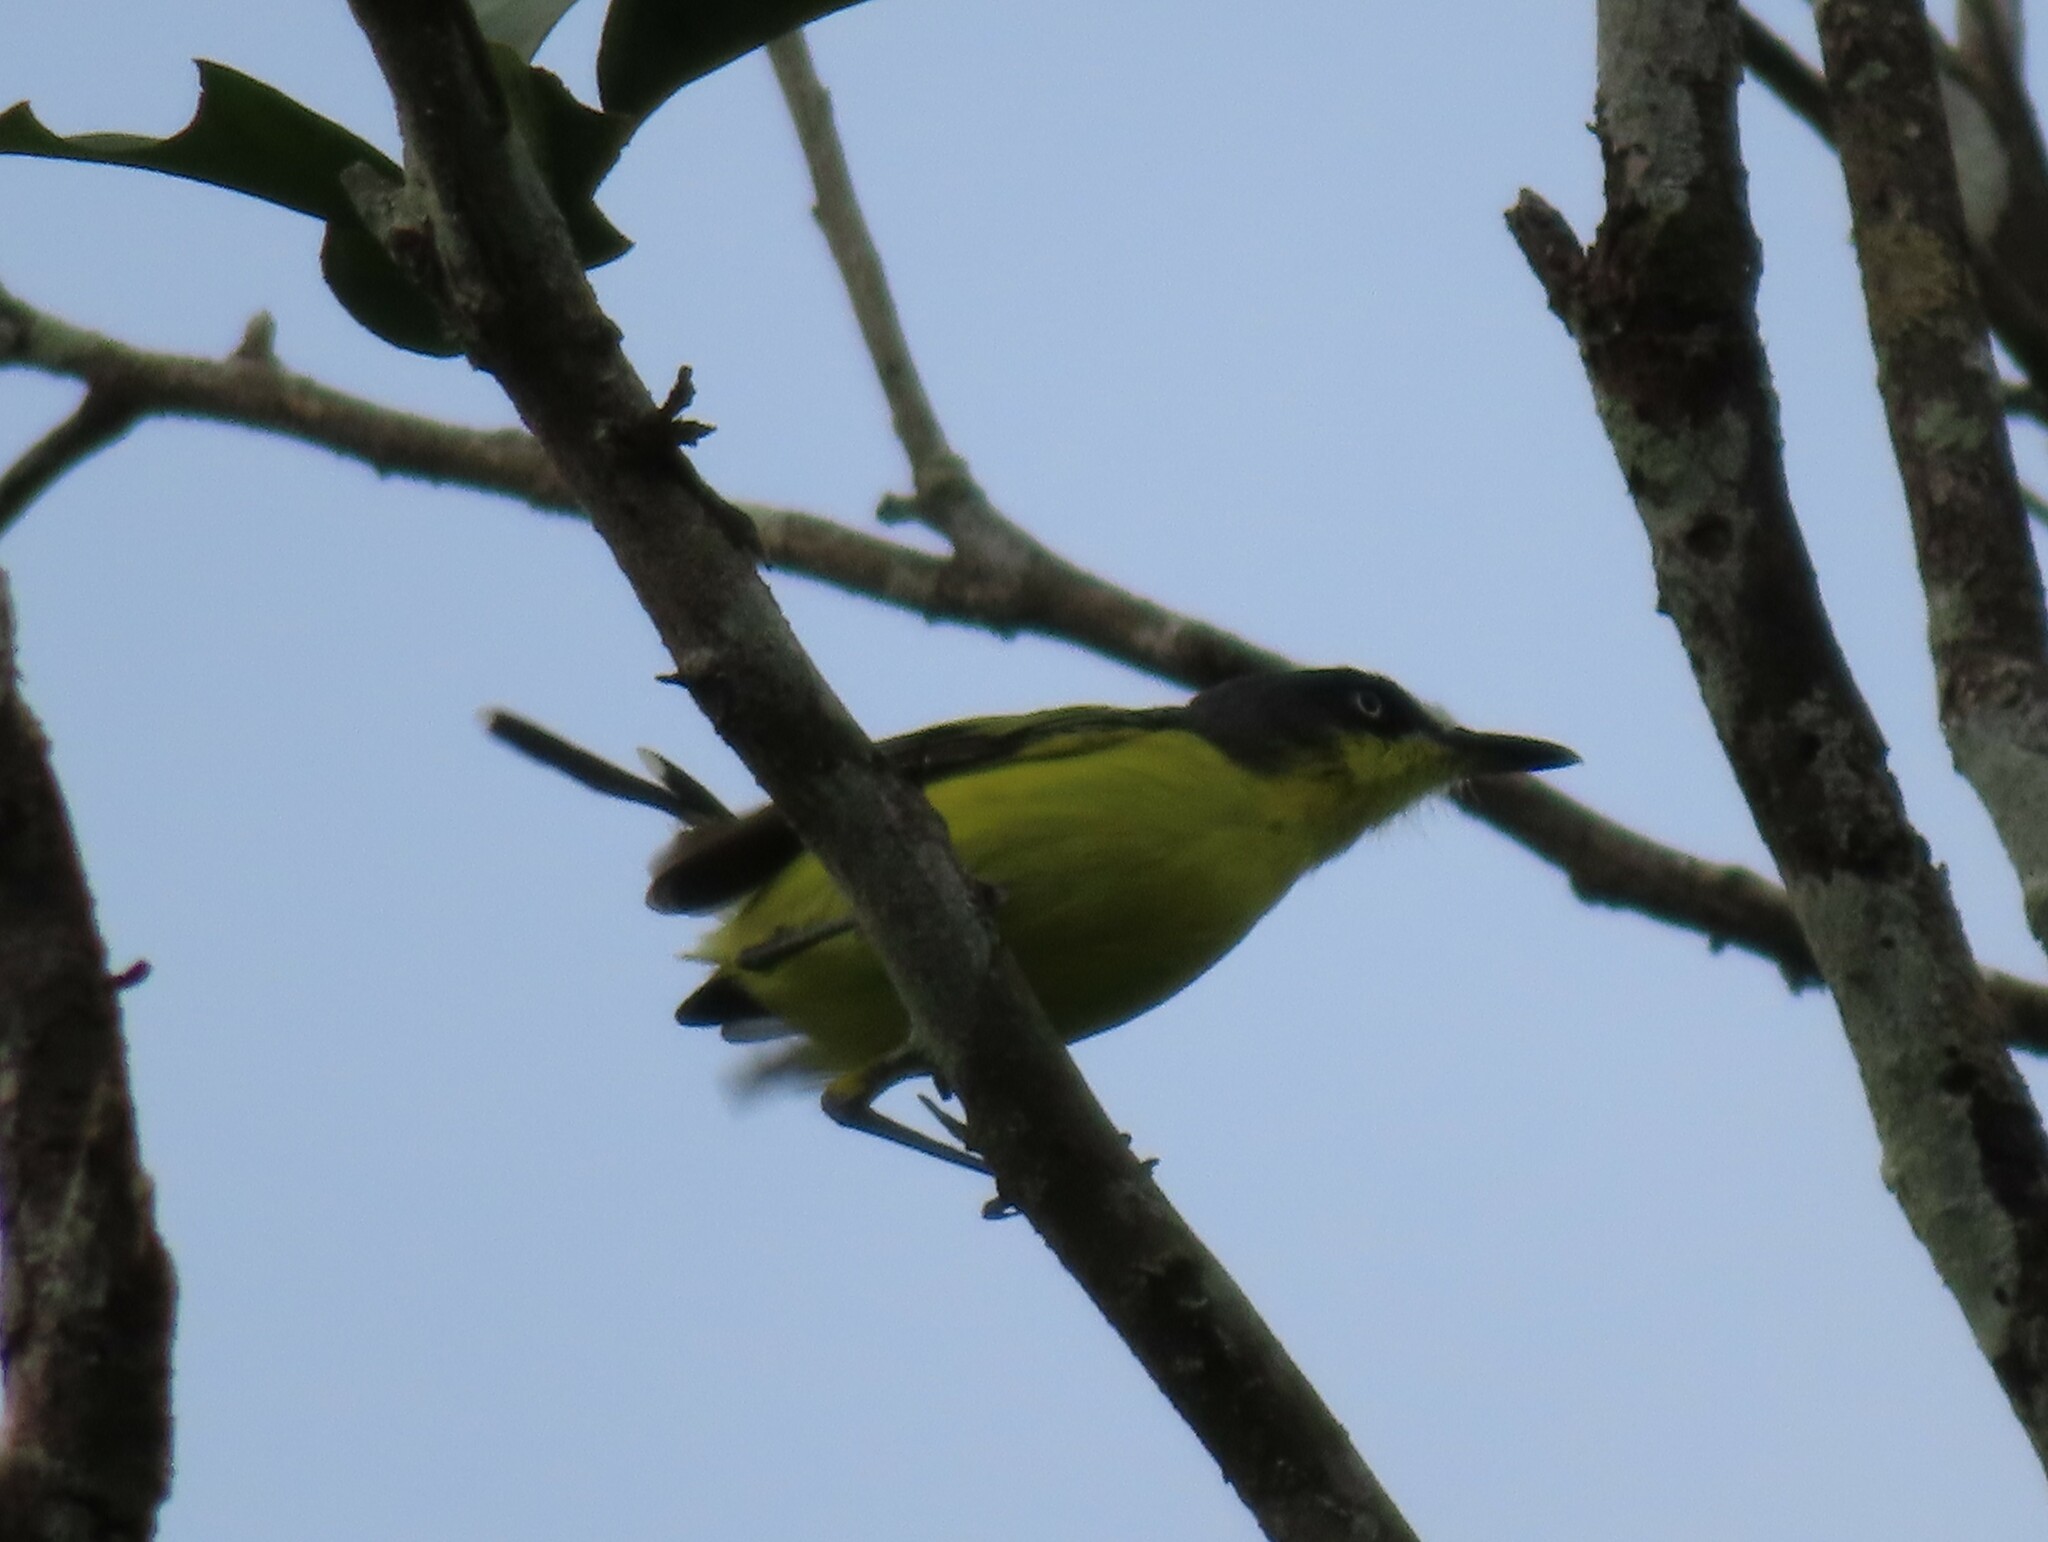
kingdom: Animalia
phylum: Chordata
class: Aves
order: Passeriformes
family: Tyrannidae
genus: Todirostrum
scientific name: Todirostrum cinereum
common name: Common tody-flycatcher
